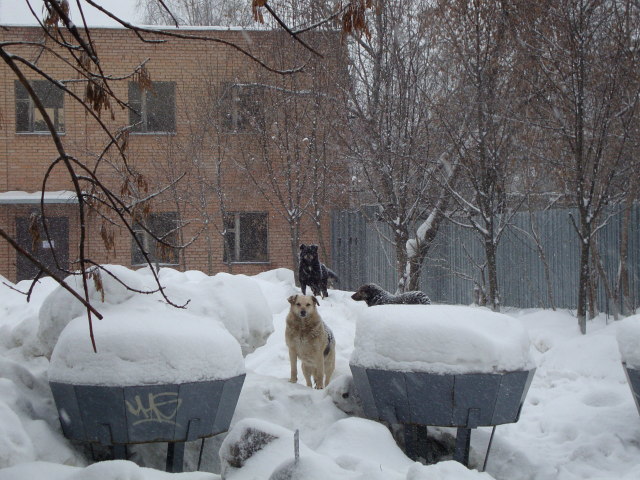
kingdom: Animalia
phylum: Chordata
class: Mammalia
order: Carnivora
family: Canidae
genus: Canis
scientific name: Canis lupus
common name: Gray wolf
